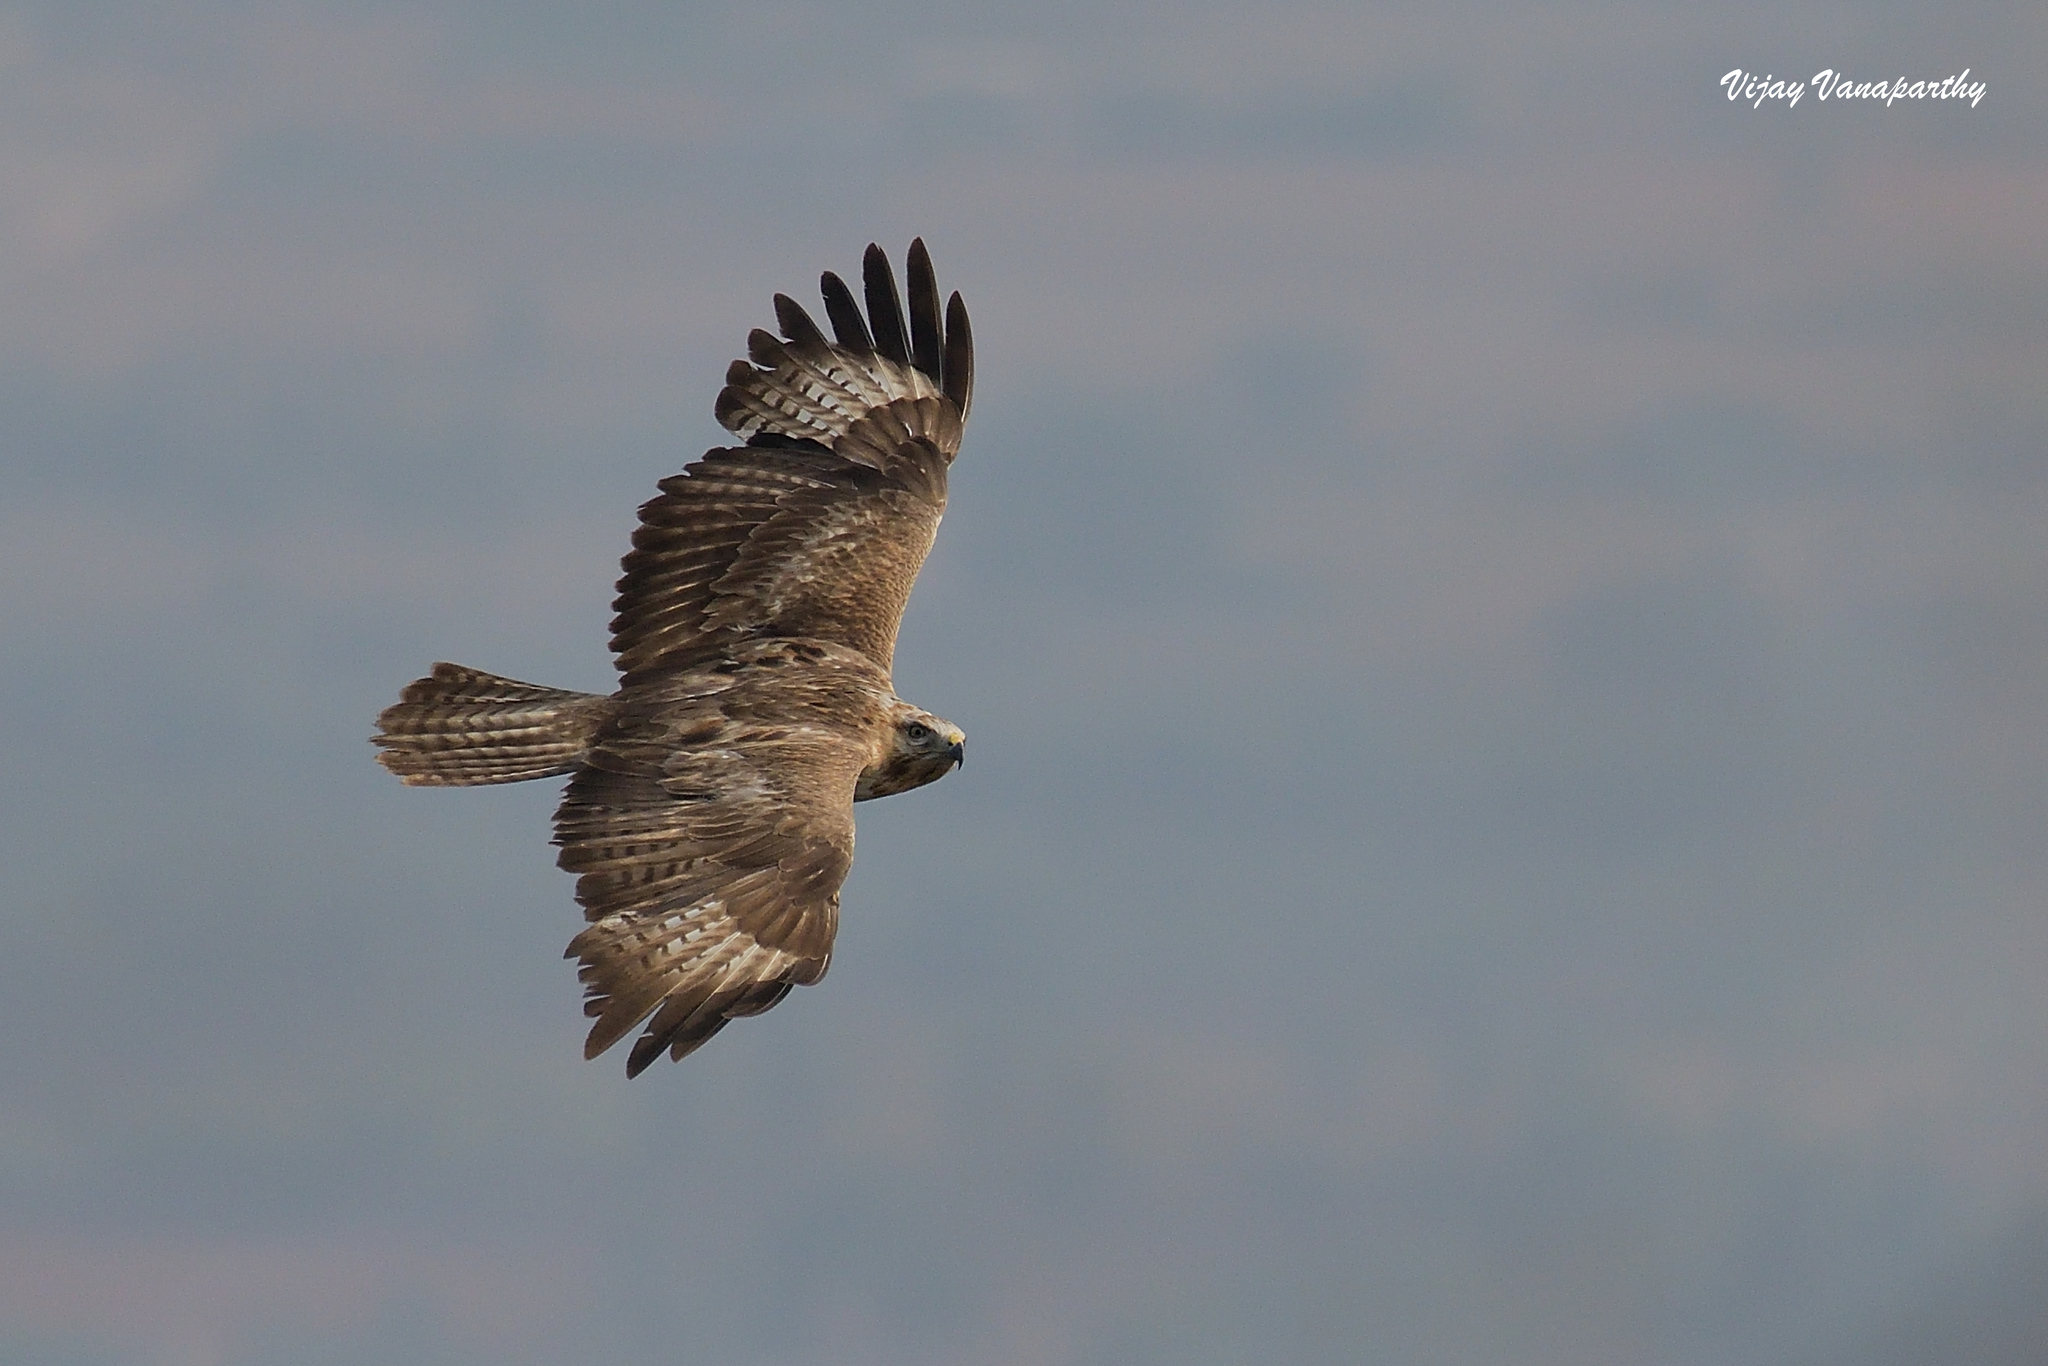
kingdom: Animalia
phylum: Chordata
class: Aves
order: Accipitriformes
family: Accipitridae
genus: Buteo
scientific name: Buteo rufinus
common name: Long-legged buzzard
